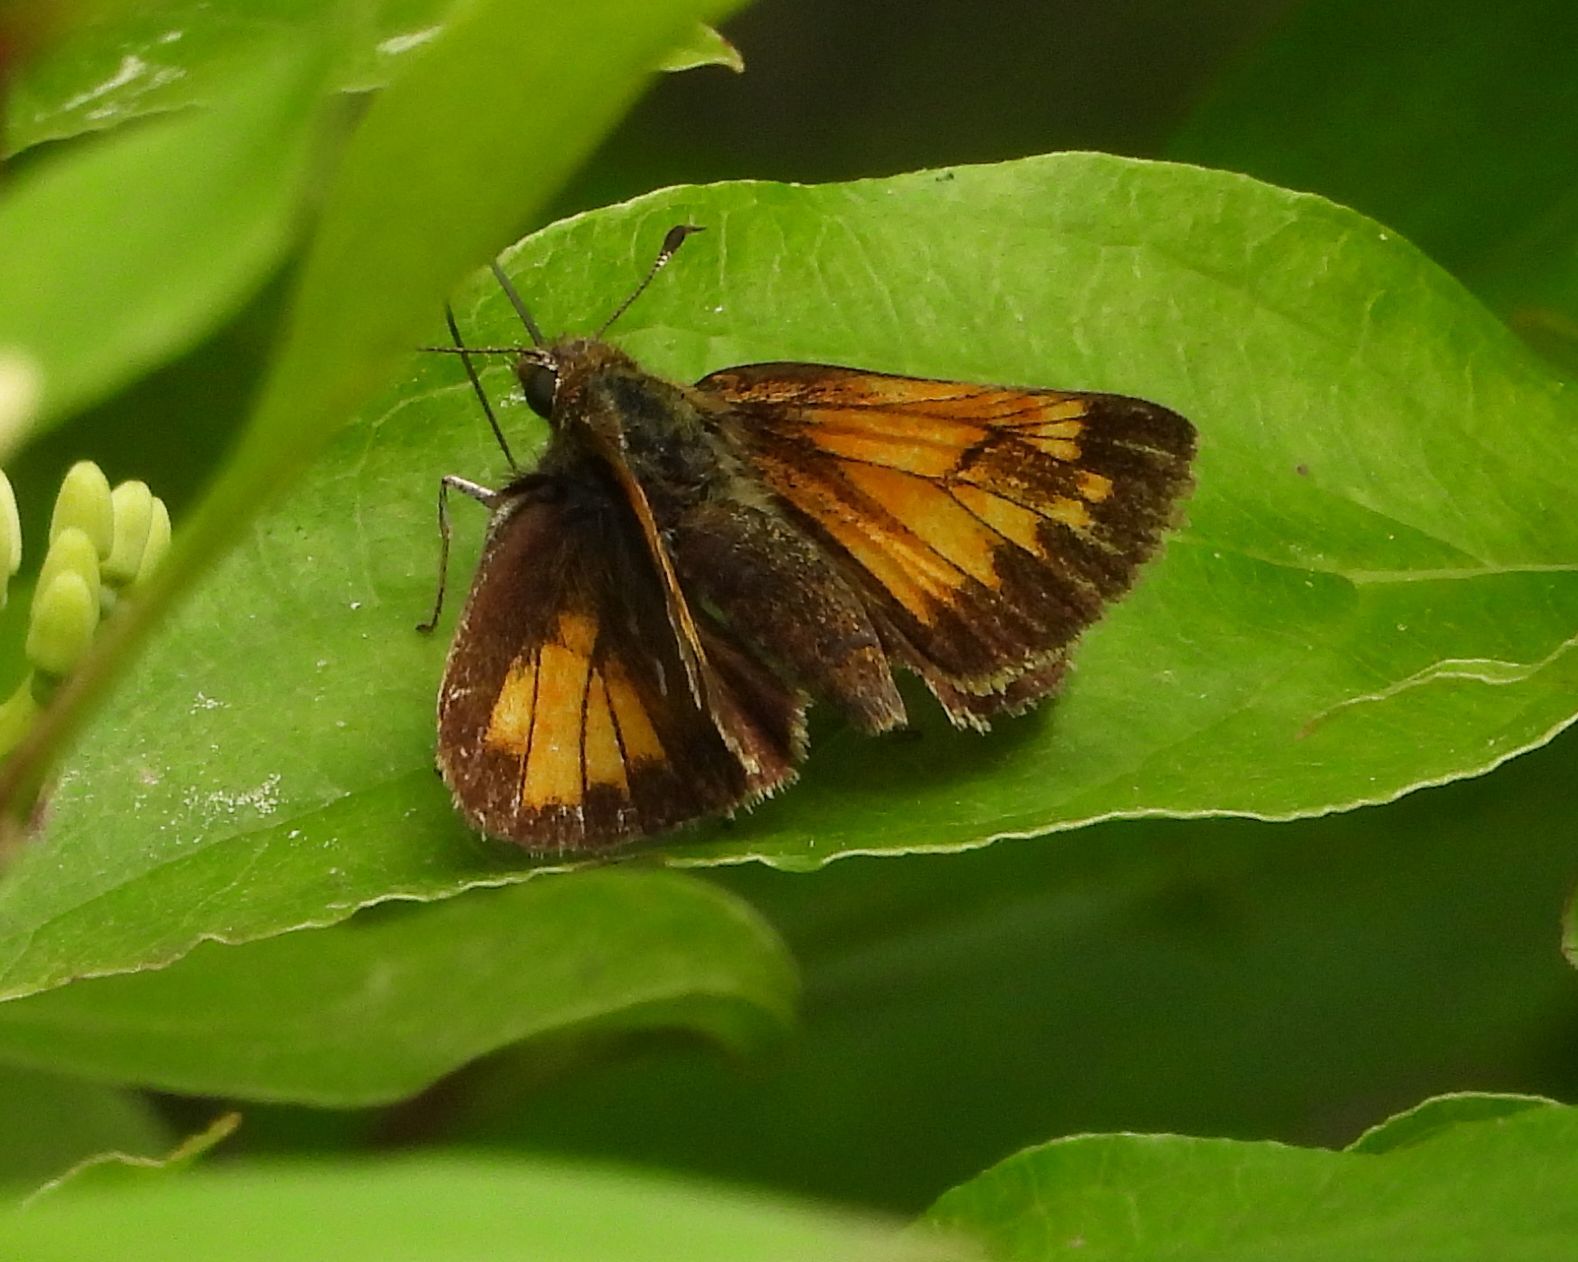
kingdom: Animalia
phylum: Arthropoda
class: Insecta
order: Lepidoptera
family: Hesperiidae
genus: Lon
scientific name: Lon hobomok
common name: Hobomok skipper
